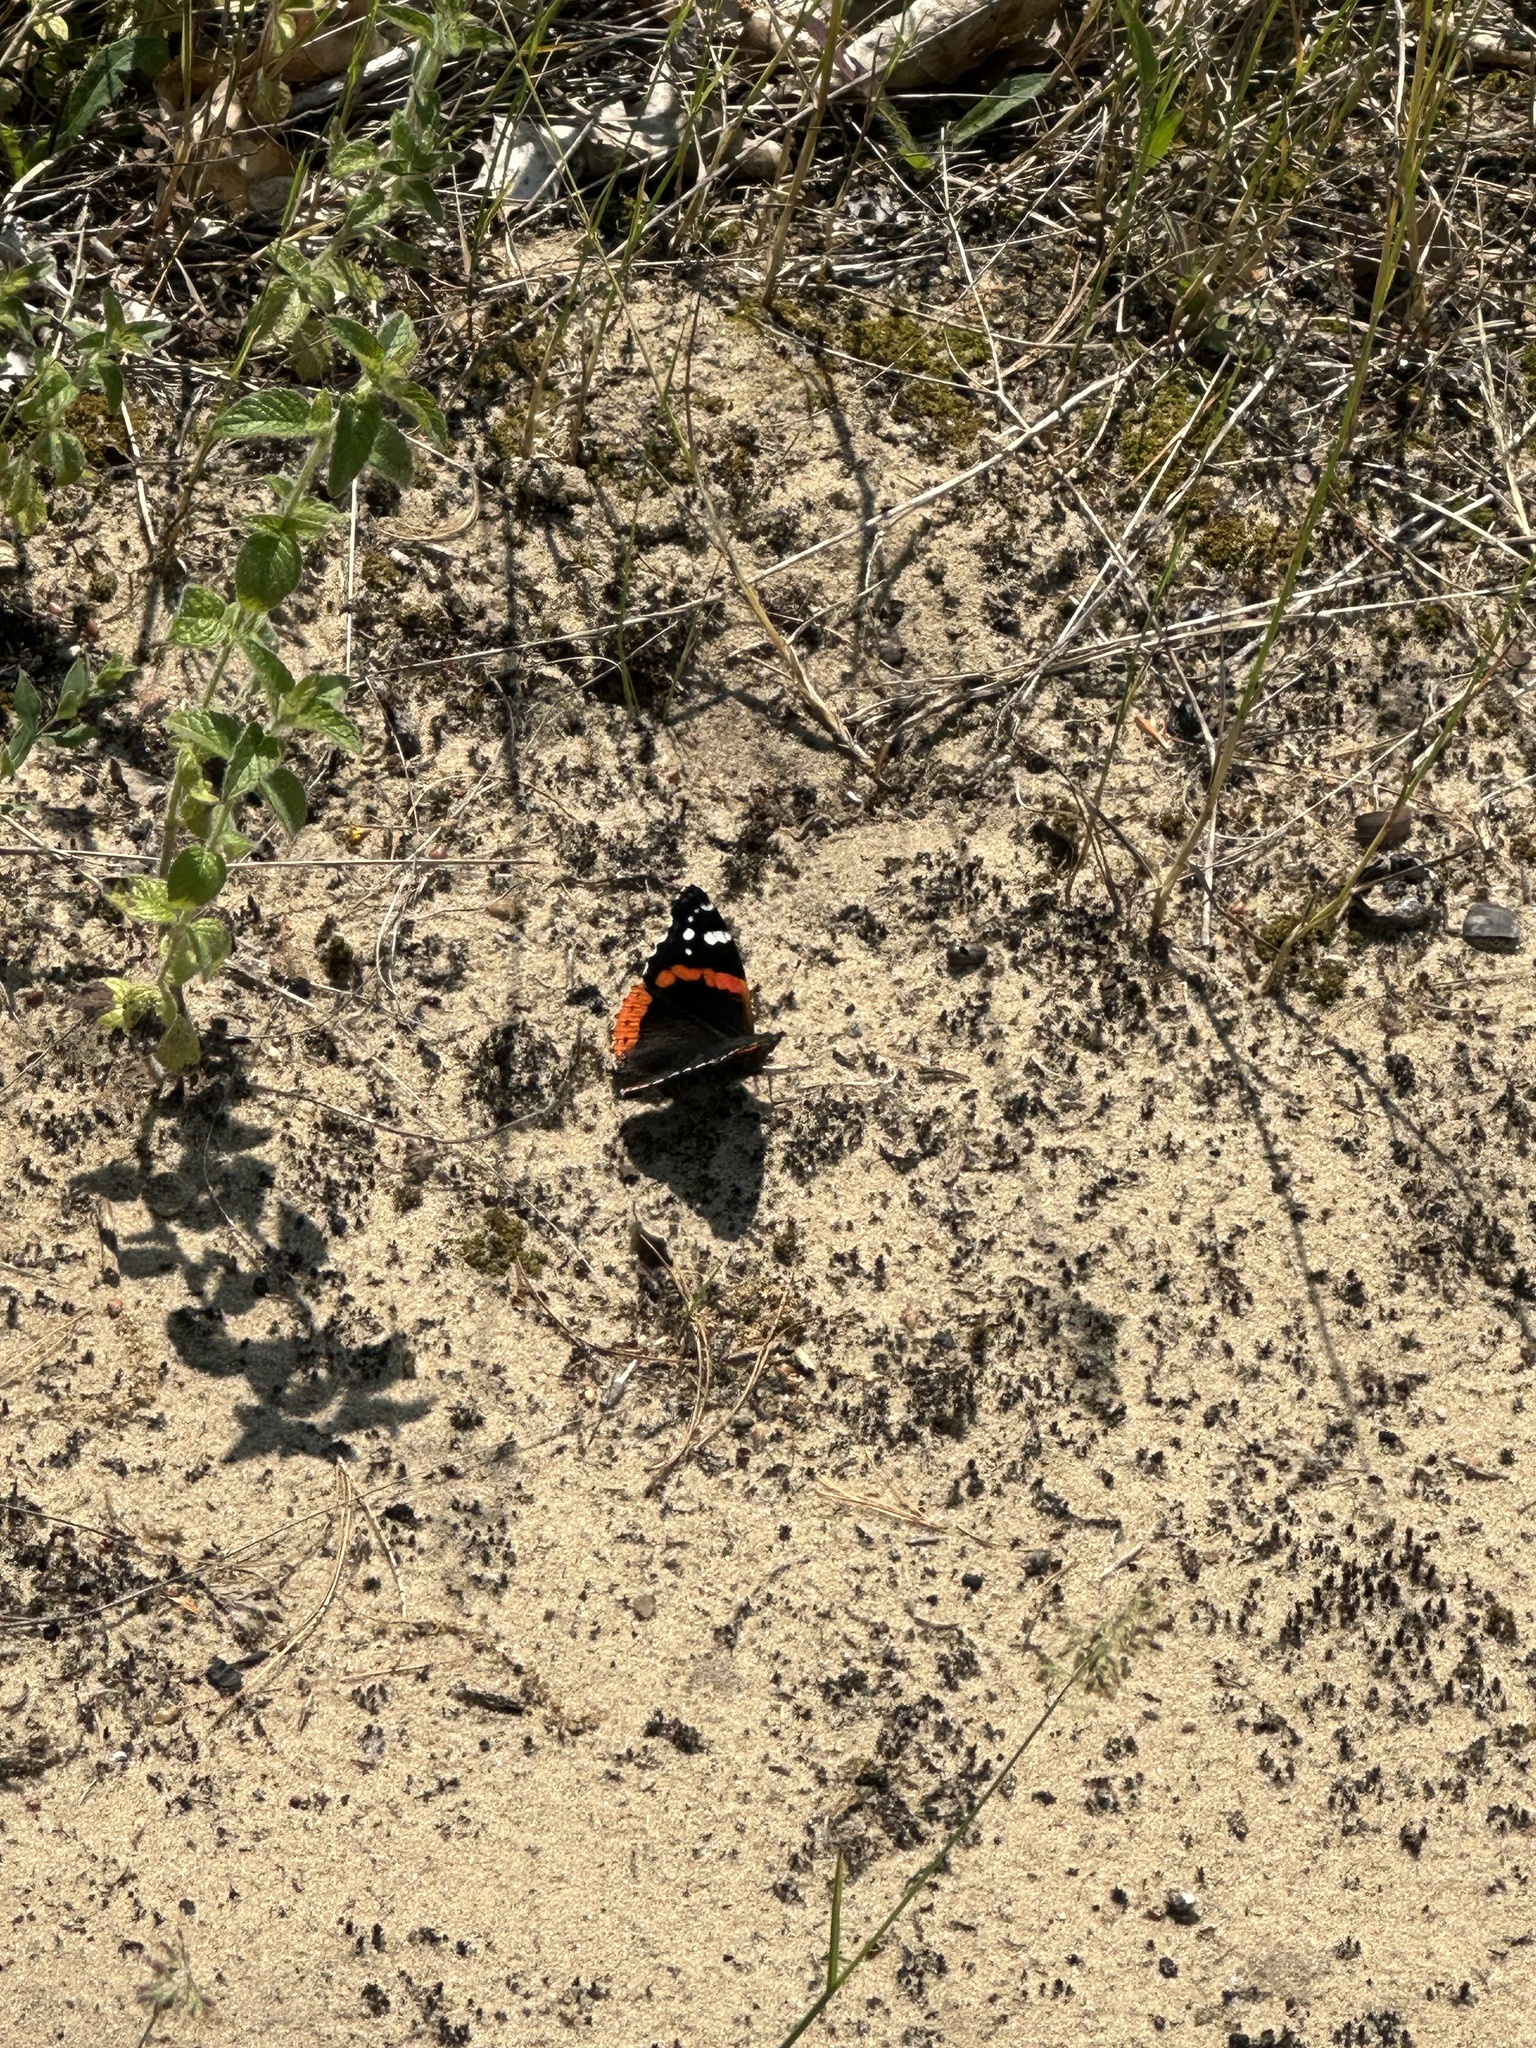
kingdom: Animalia
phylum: Arthropoda
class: Insecta
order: Lepidoptera
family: Nymphalidae
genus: Vanessa
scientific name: Vanessa atalanta
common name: Red admiral
